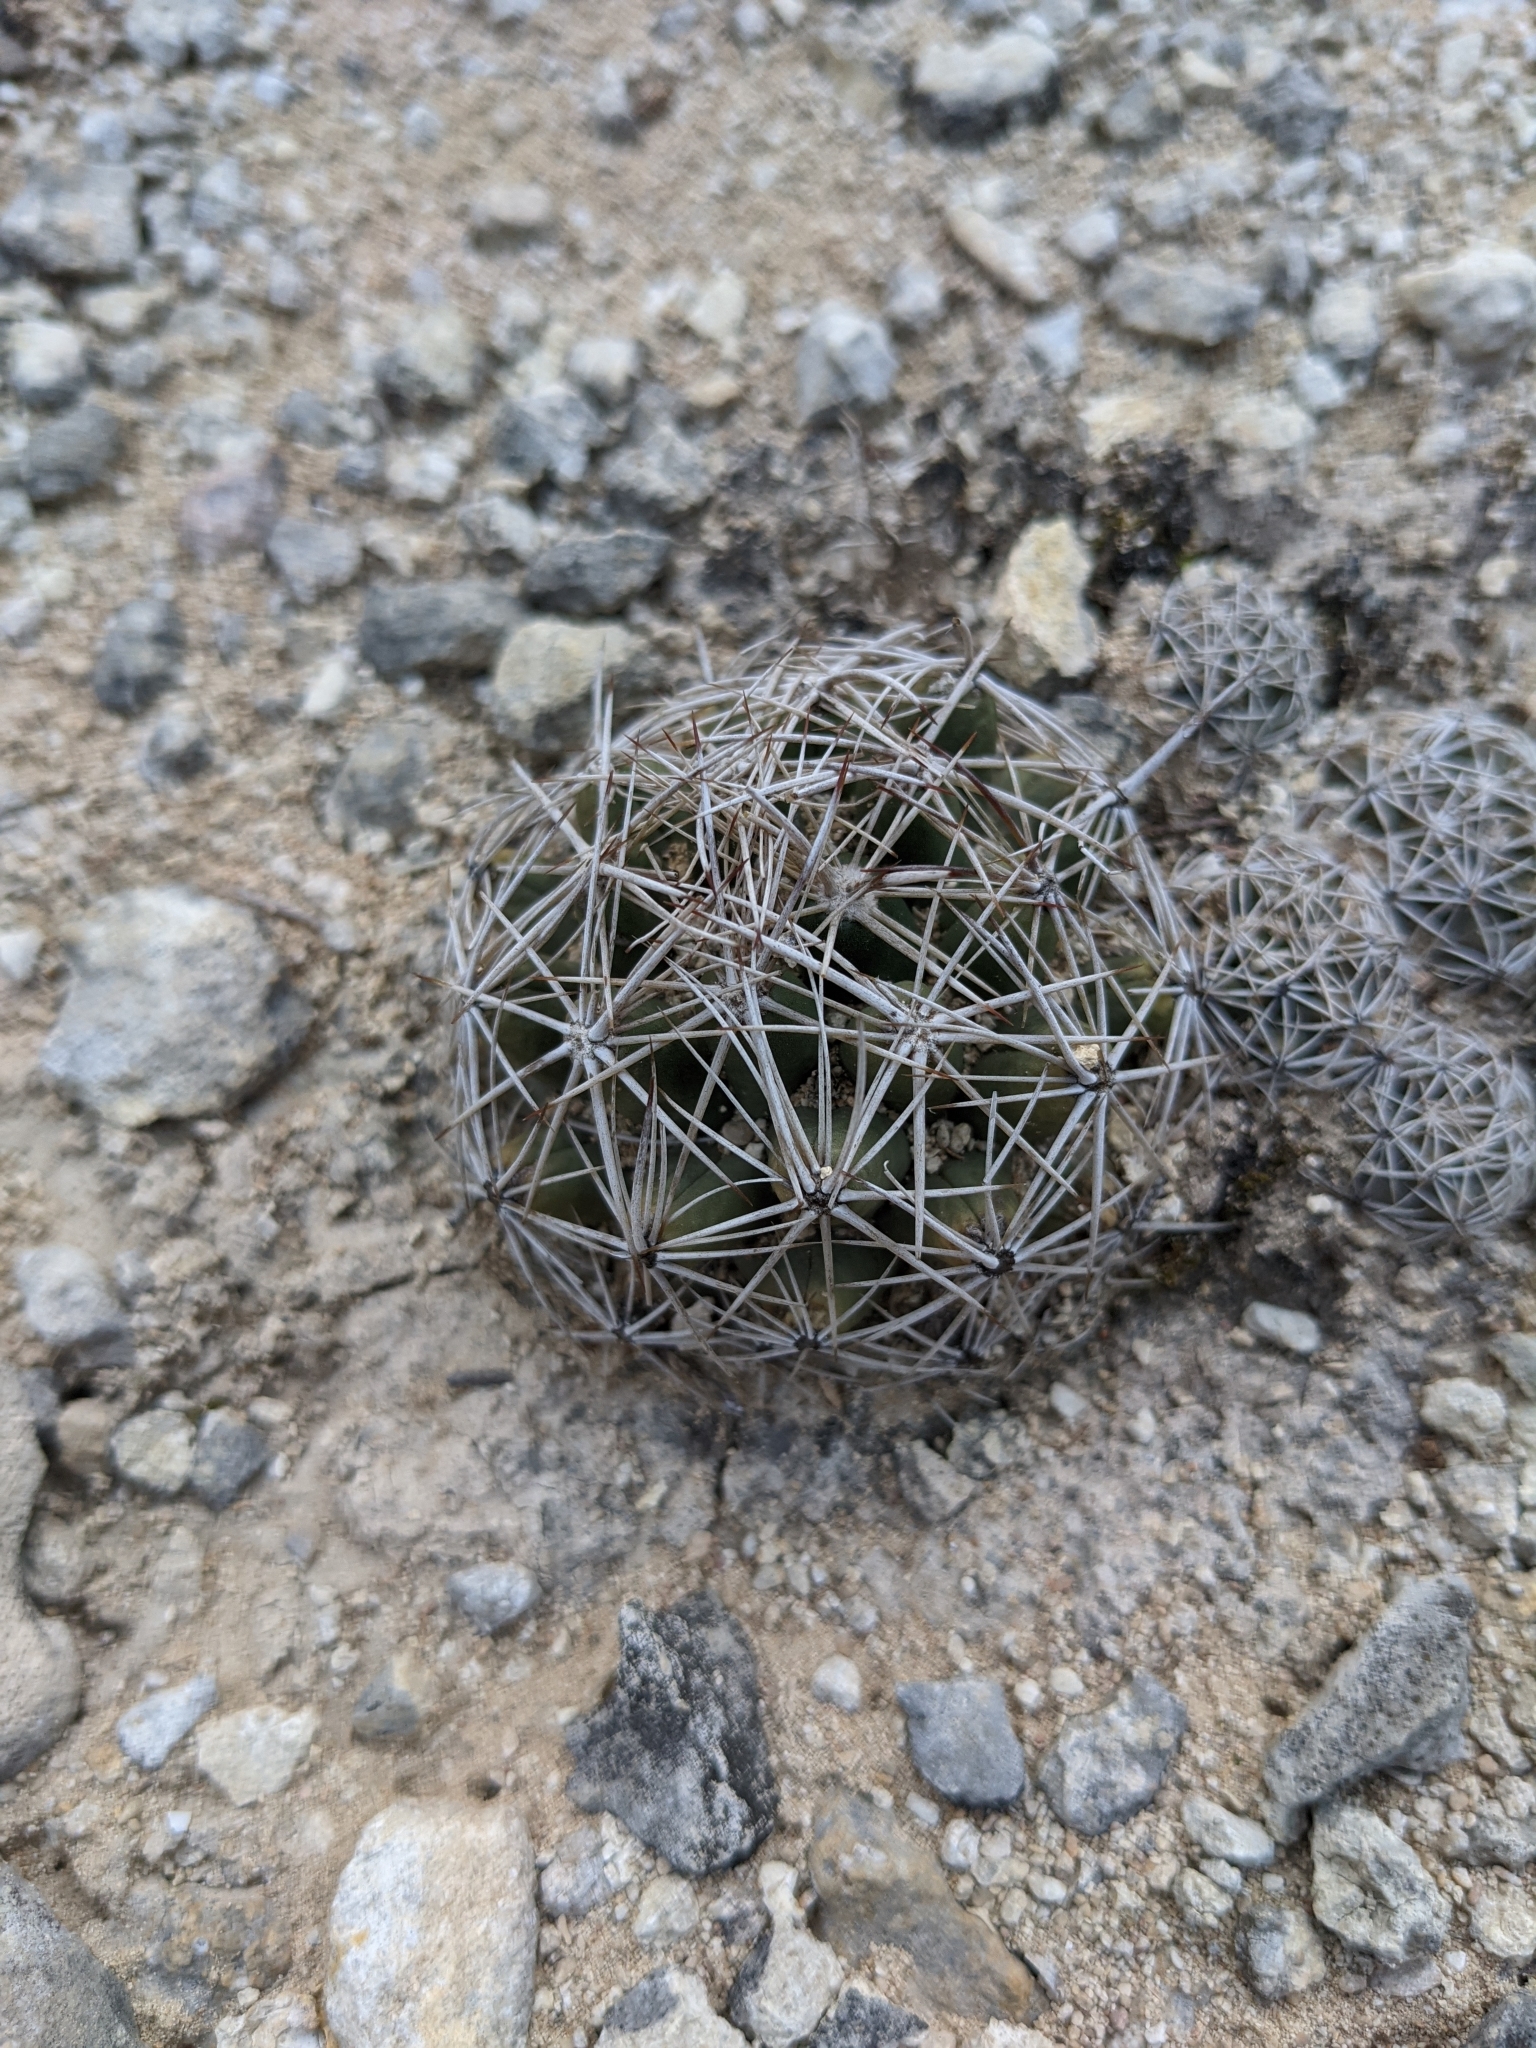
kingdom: Plantae
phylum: Tracheophyta
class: Magnoliopsida
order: Caryophyllales
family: Cactaceae
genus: Coryphantha
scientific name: Coryphantha sulcata
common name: Finger cactus
